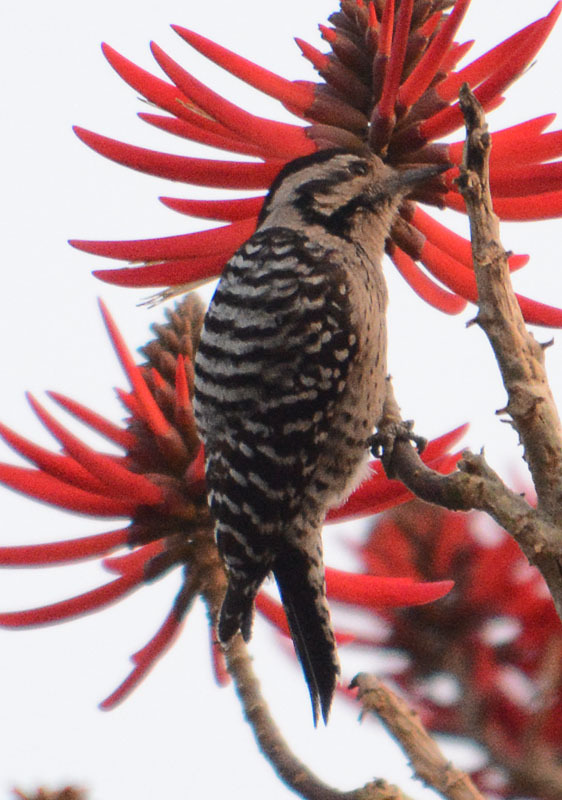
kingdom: Animalia
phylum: Chordata
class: Aves
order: Piciformes
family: Picidae
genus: Dryobates
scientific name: Dryobates scalaris
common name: Ladder-backed woodpecker
